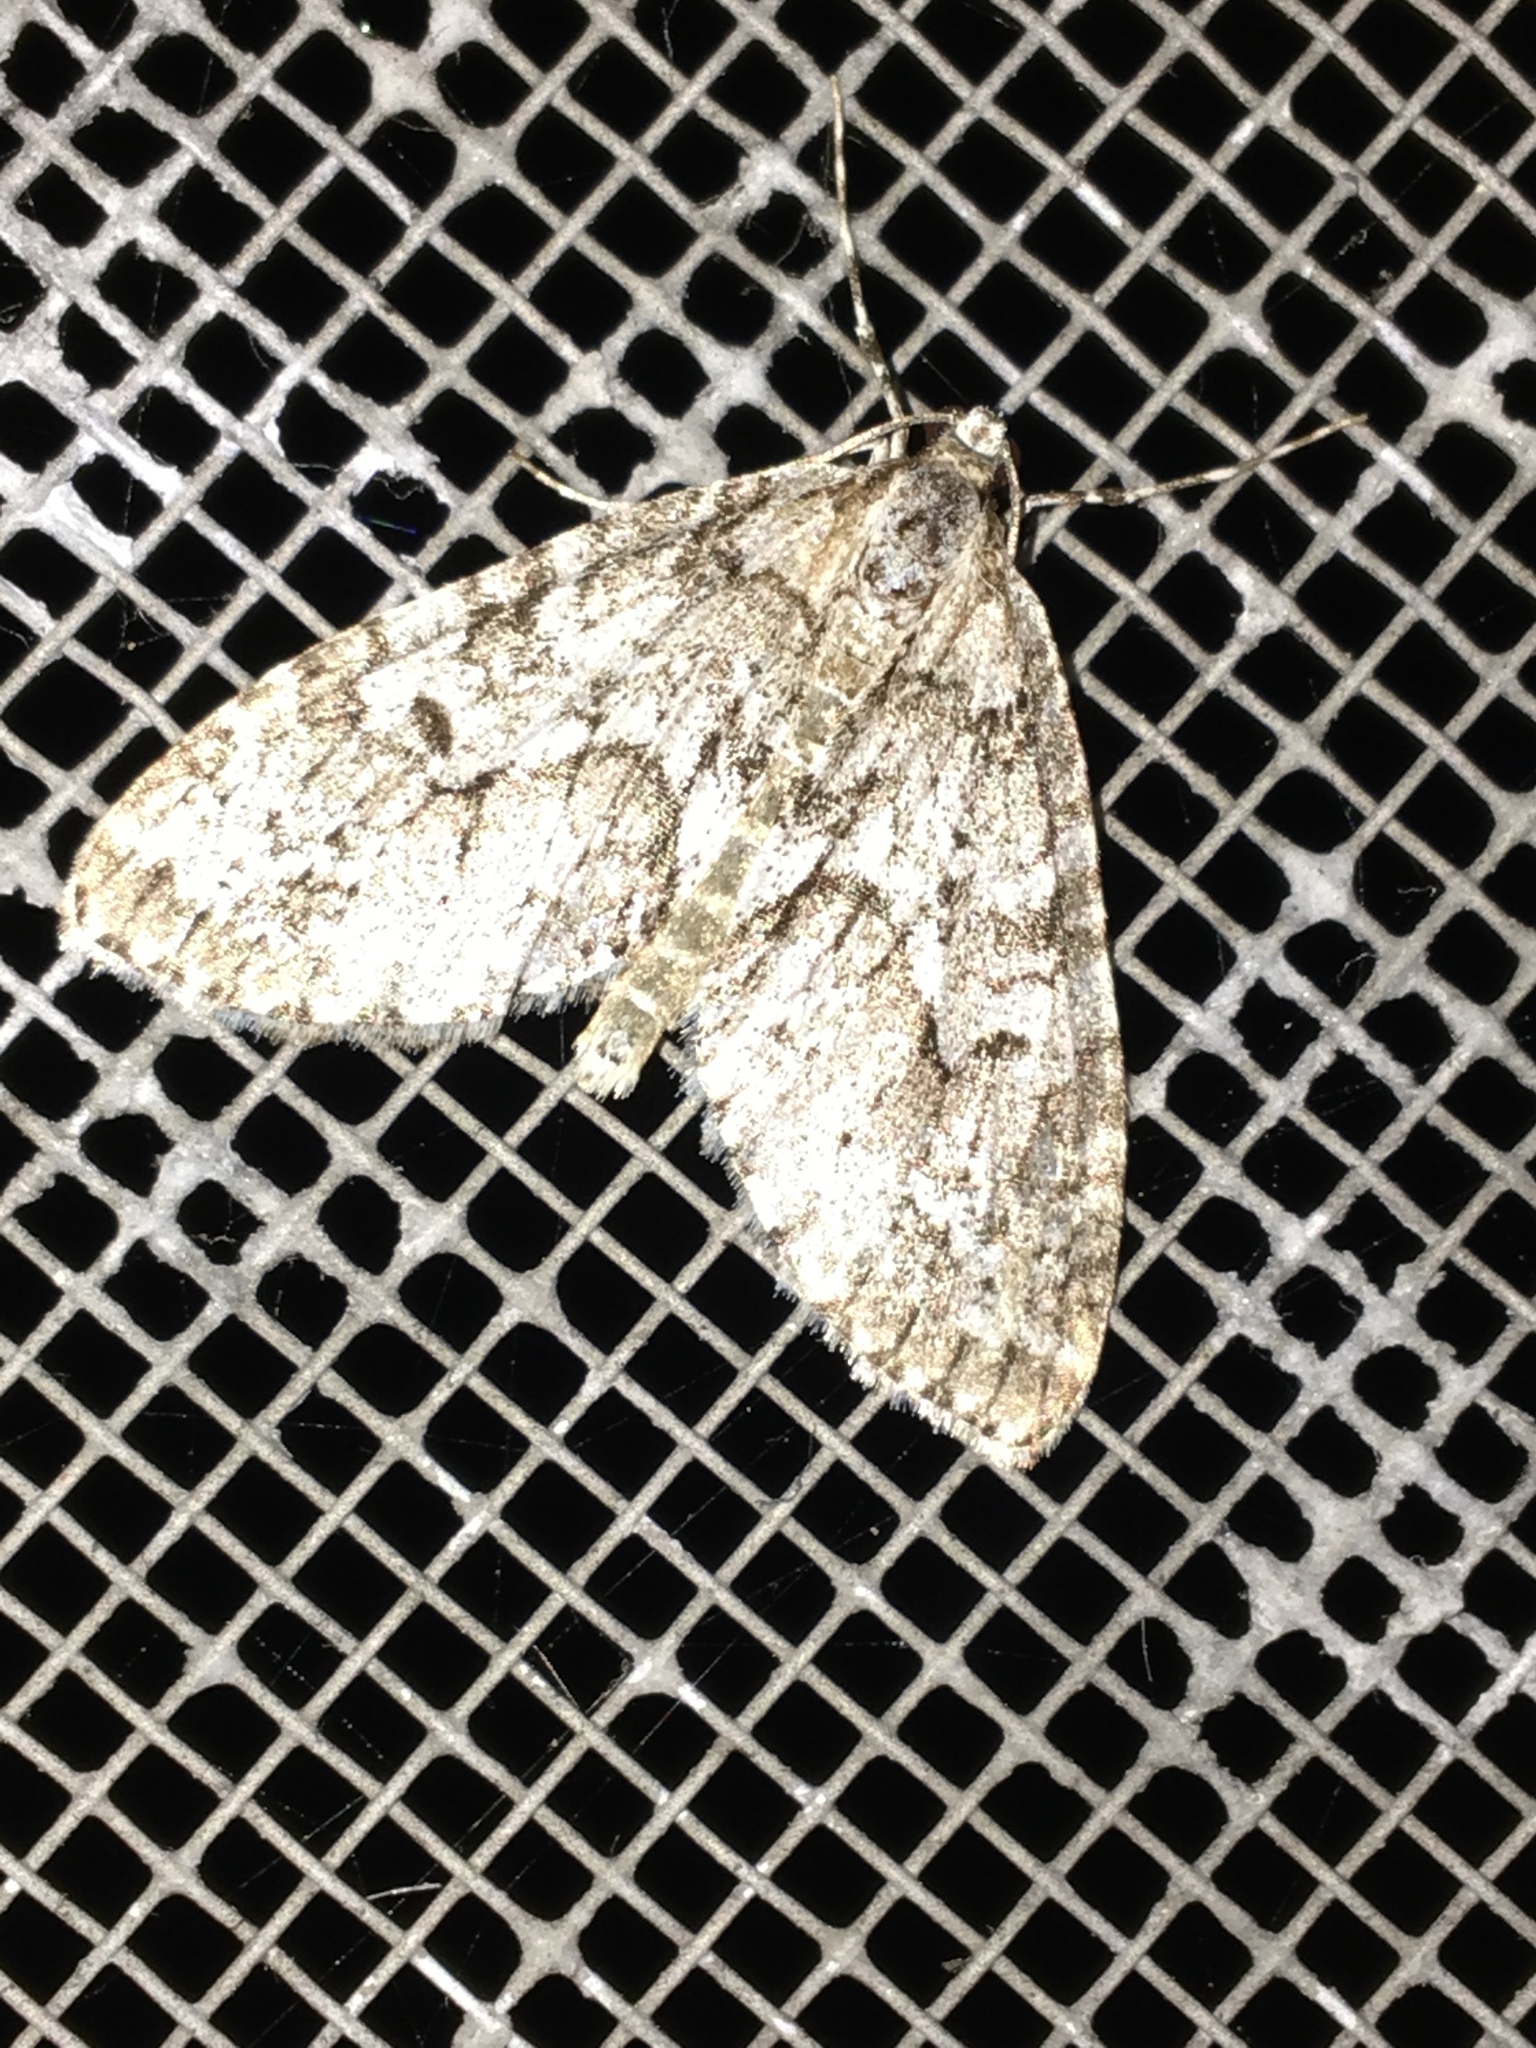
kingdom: Animalia
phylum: Arthropoda
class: Insecta
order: Lepidoptera
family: Geometridae
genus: Cladara
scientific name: Cladara limitaria
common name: Mottled gray carpet
